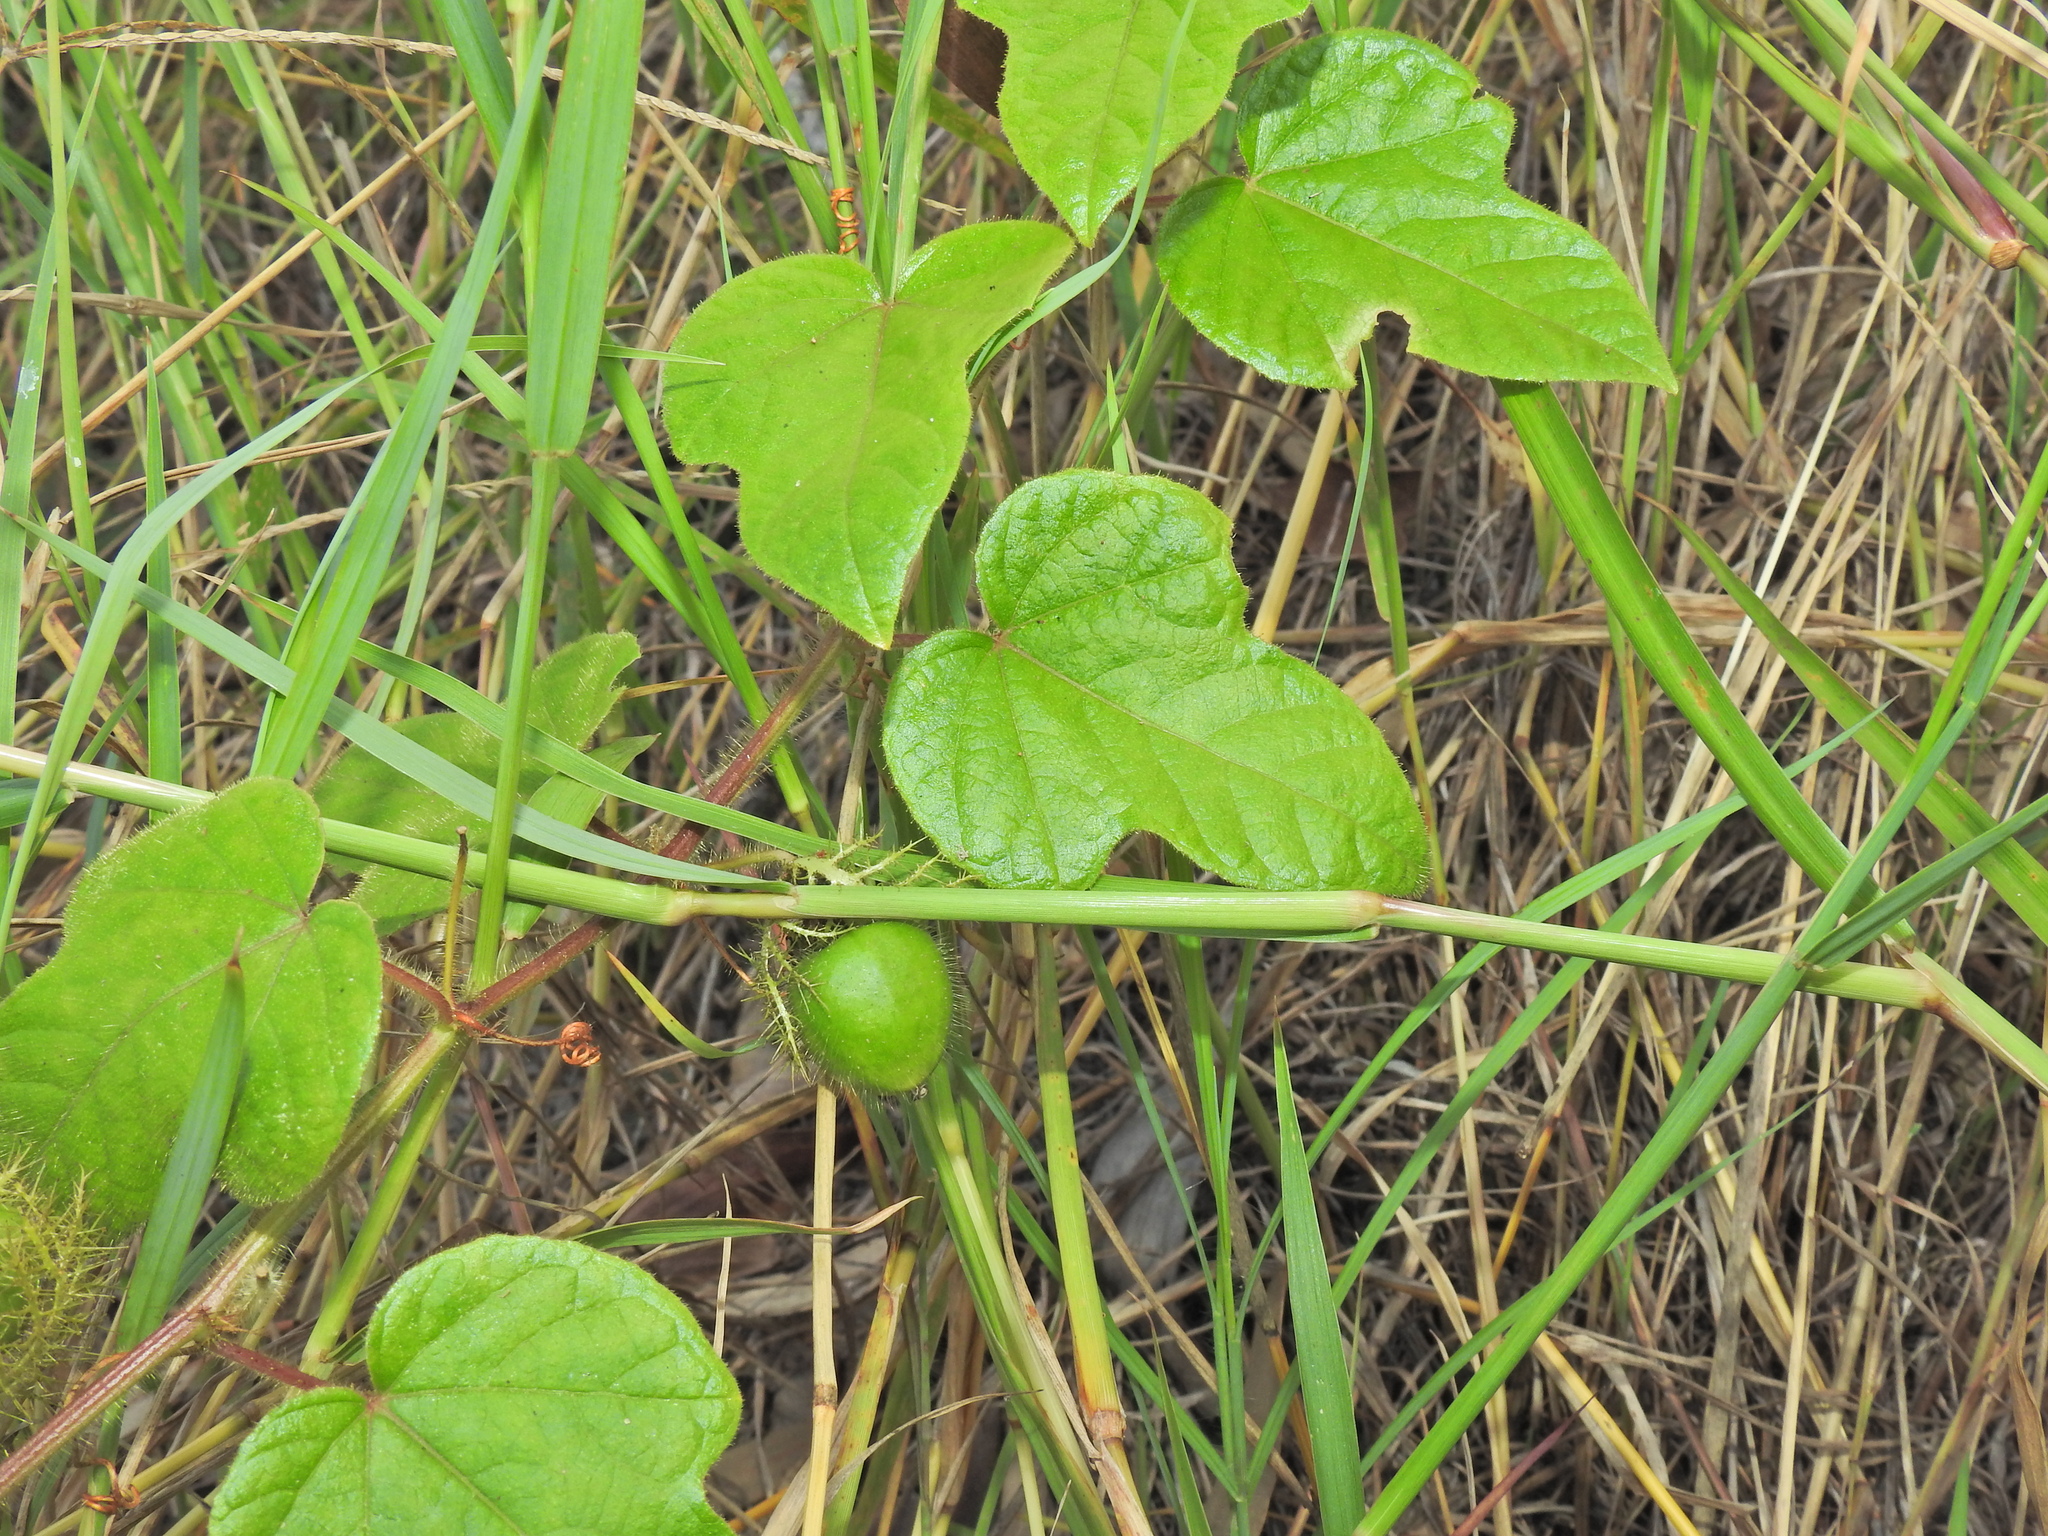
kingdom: Plantae
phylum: Tracheophyta
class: Magnoliopsida
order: Malpighiales
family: Passifloraceae
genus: Passiflora
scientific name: Passiflora foetida
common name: Fetid passionflower
